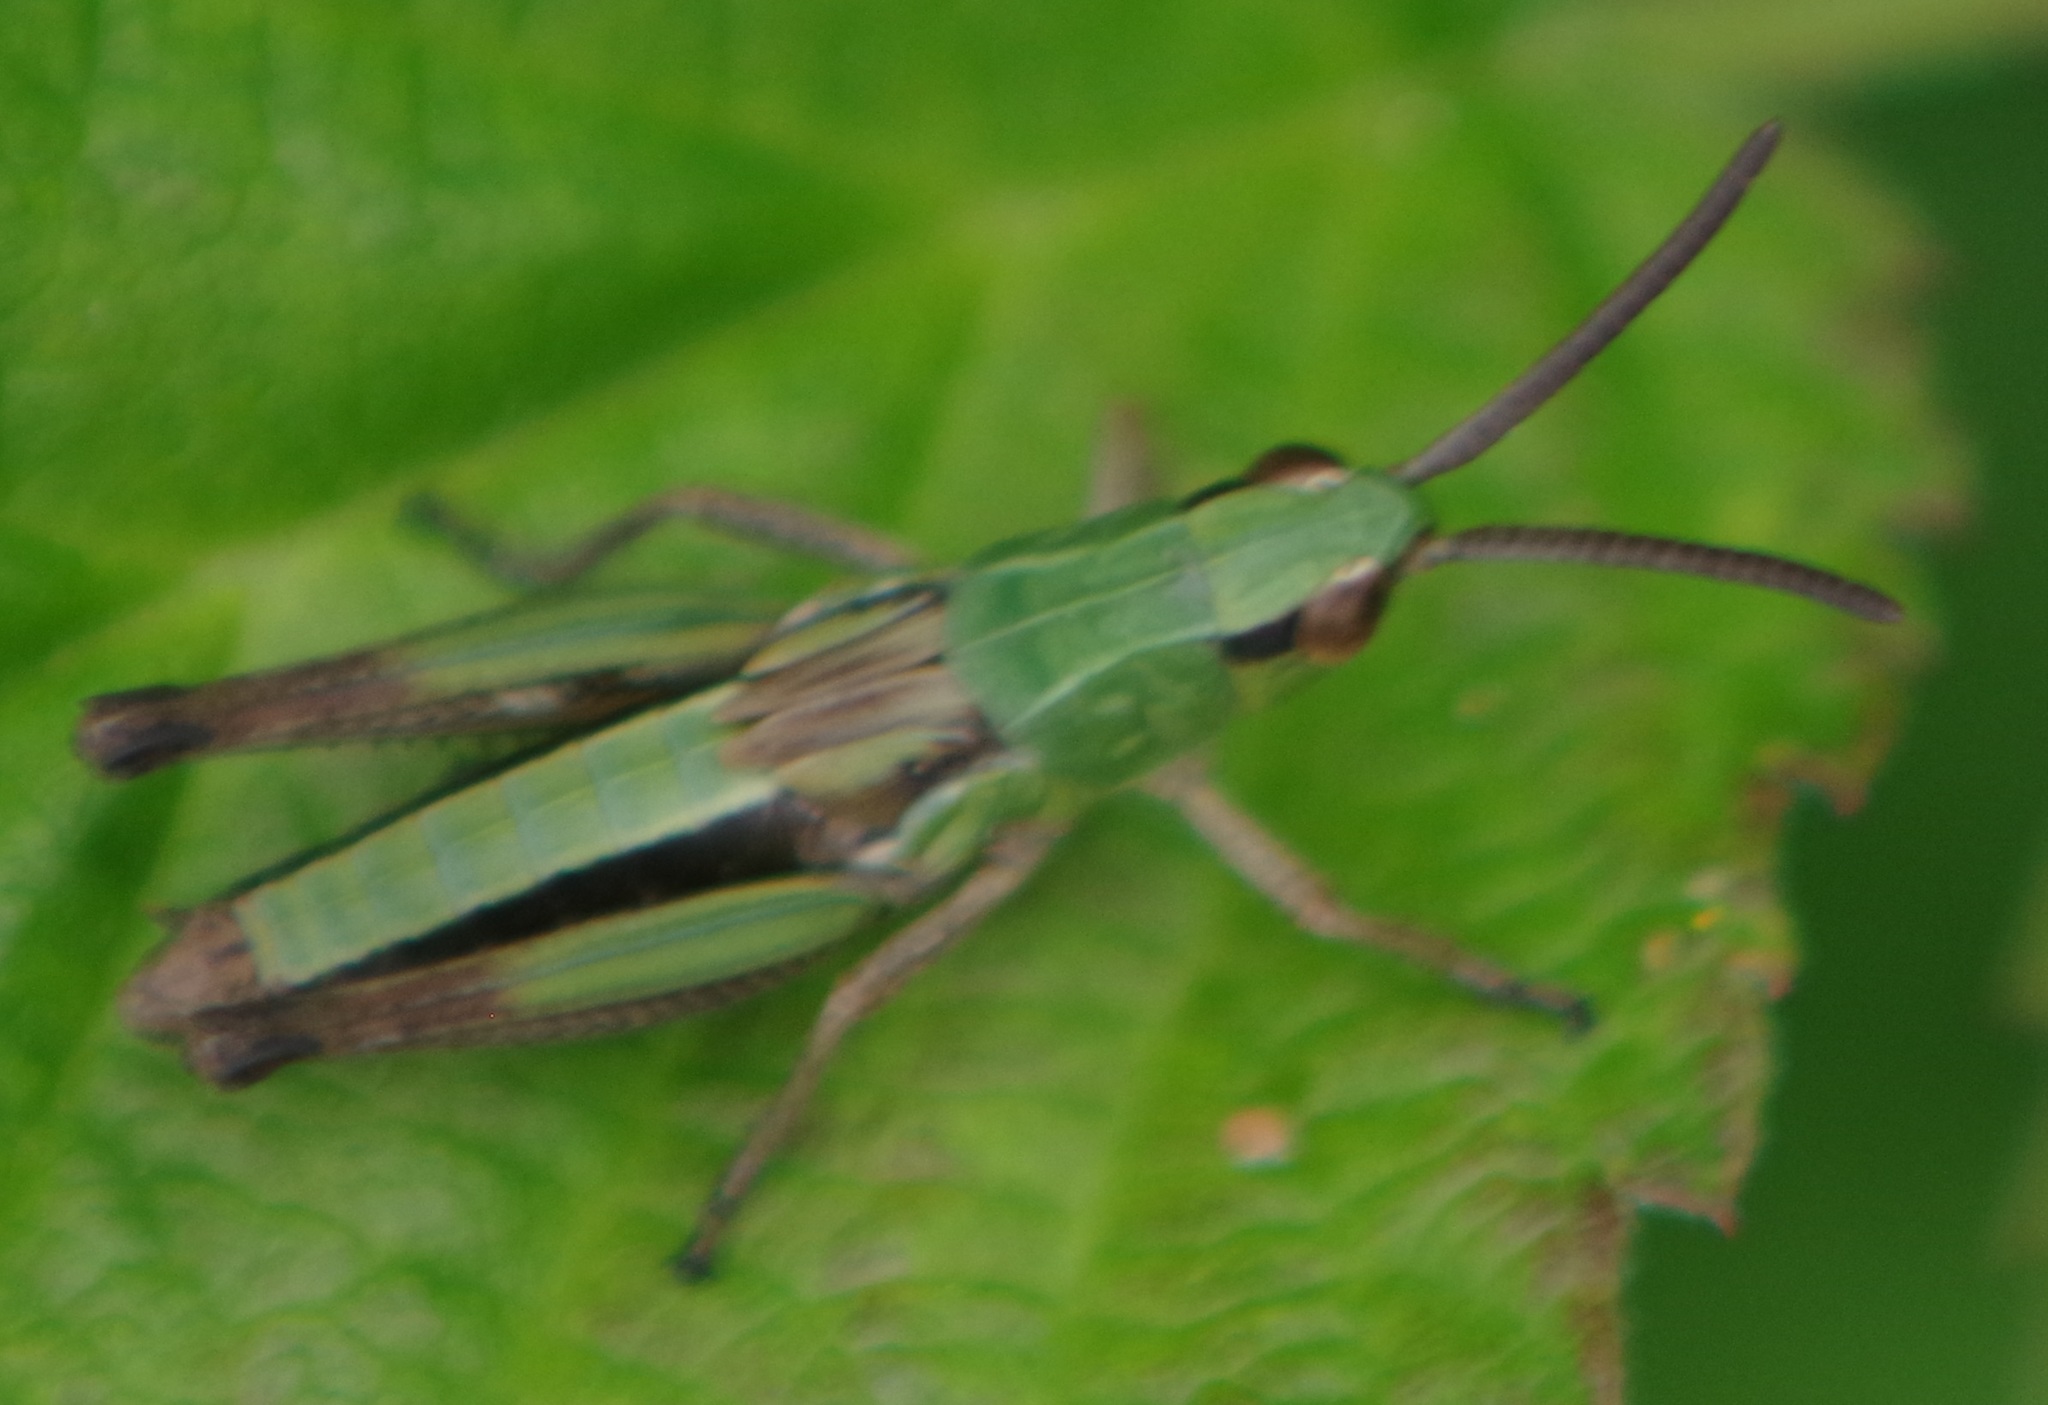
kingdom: Animalia
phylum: Arthropoda
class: Insecta
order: Orthoptera
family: Acrididae
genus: Pseudochorthippus
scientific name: Pseudochorthippus parallelus
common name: Meadow grasshopper
